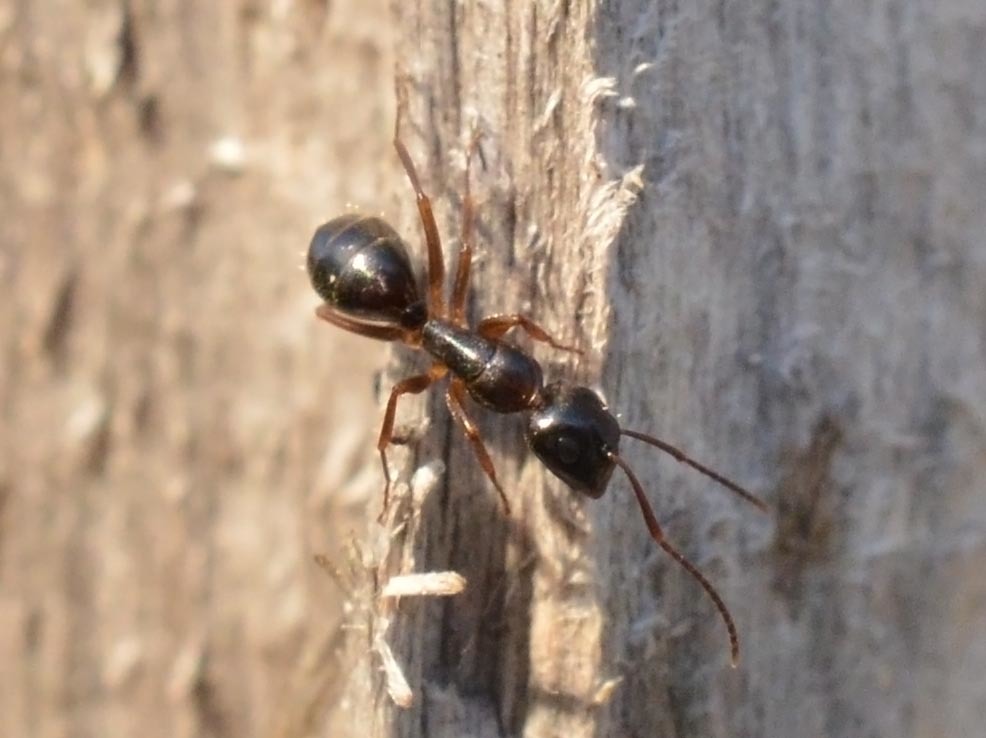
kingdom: Animalia
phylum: Arthropoda
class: Insecta
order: Hymenoptera
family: Formicidae
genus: Camponotus
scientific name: Camponotus fallax
